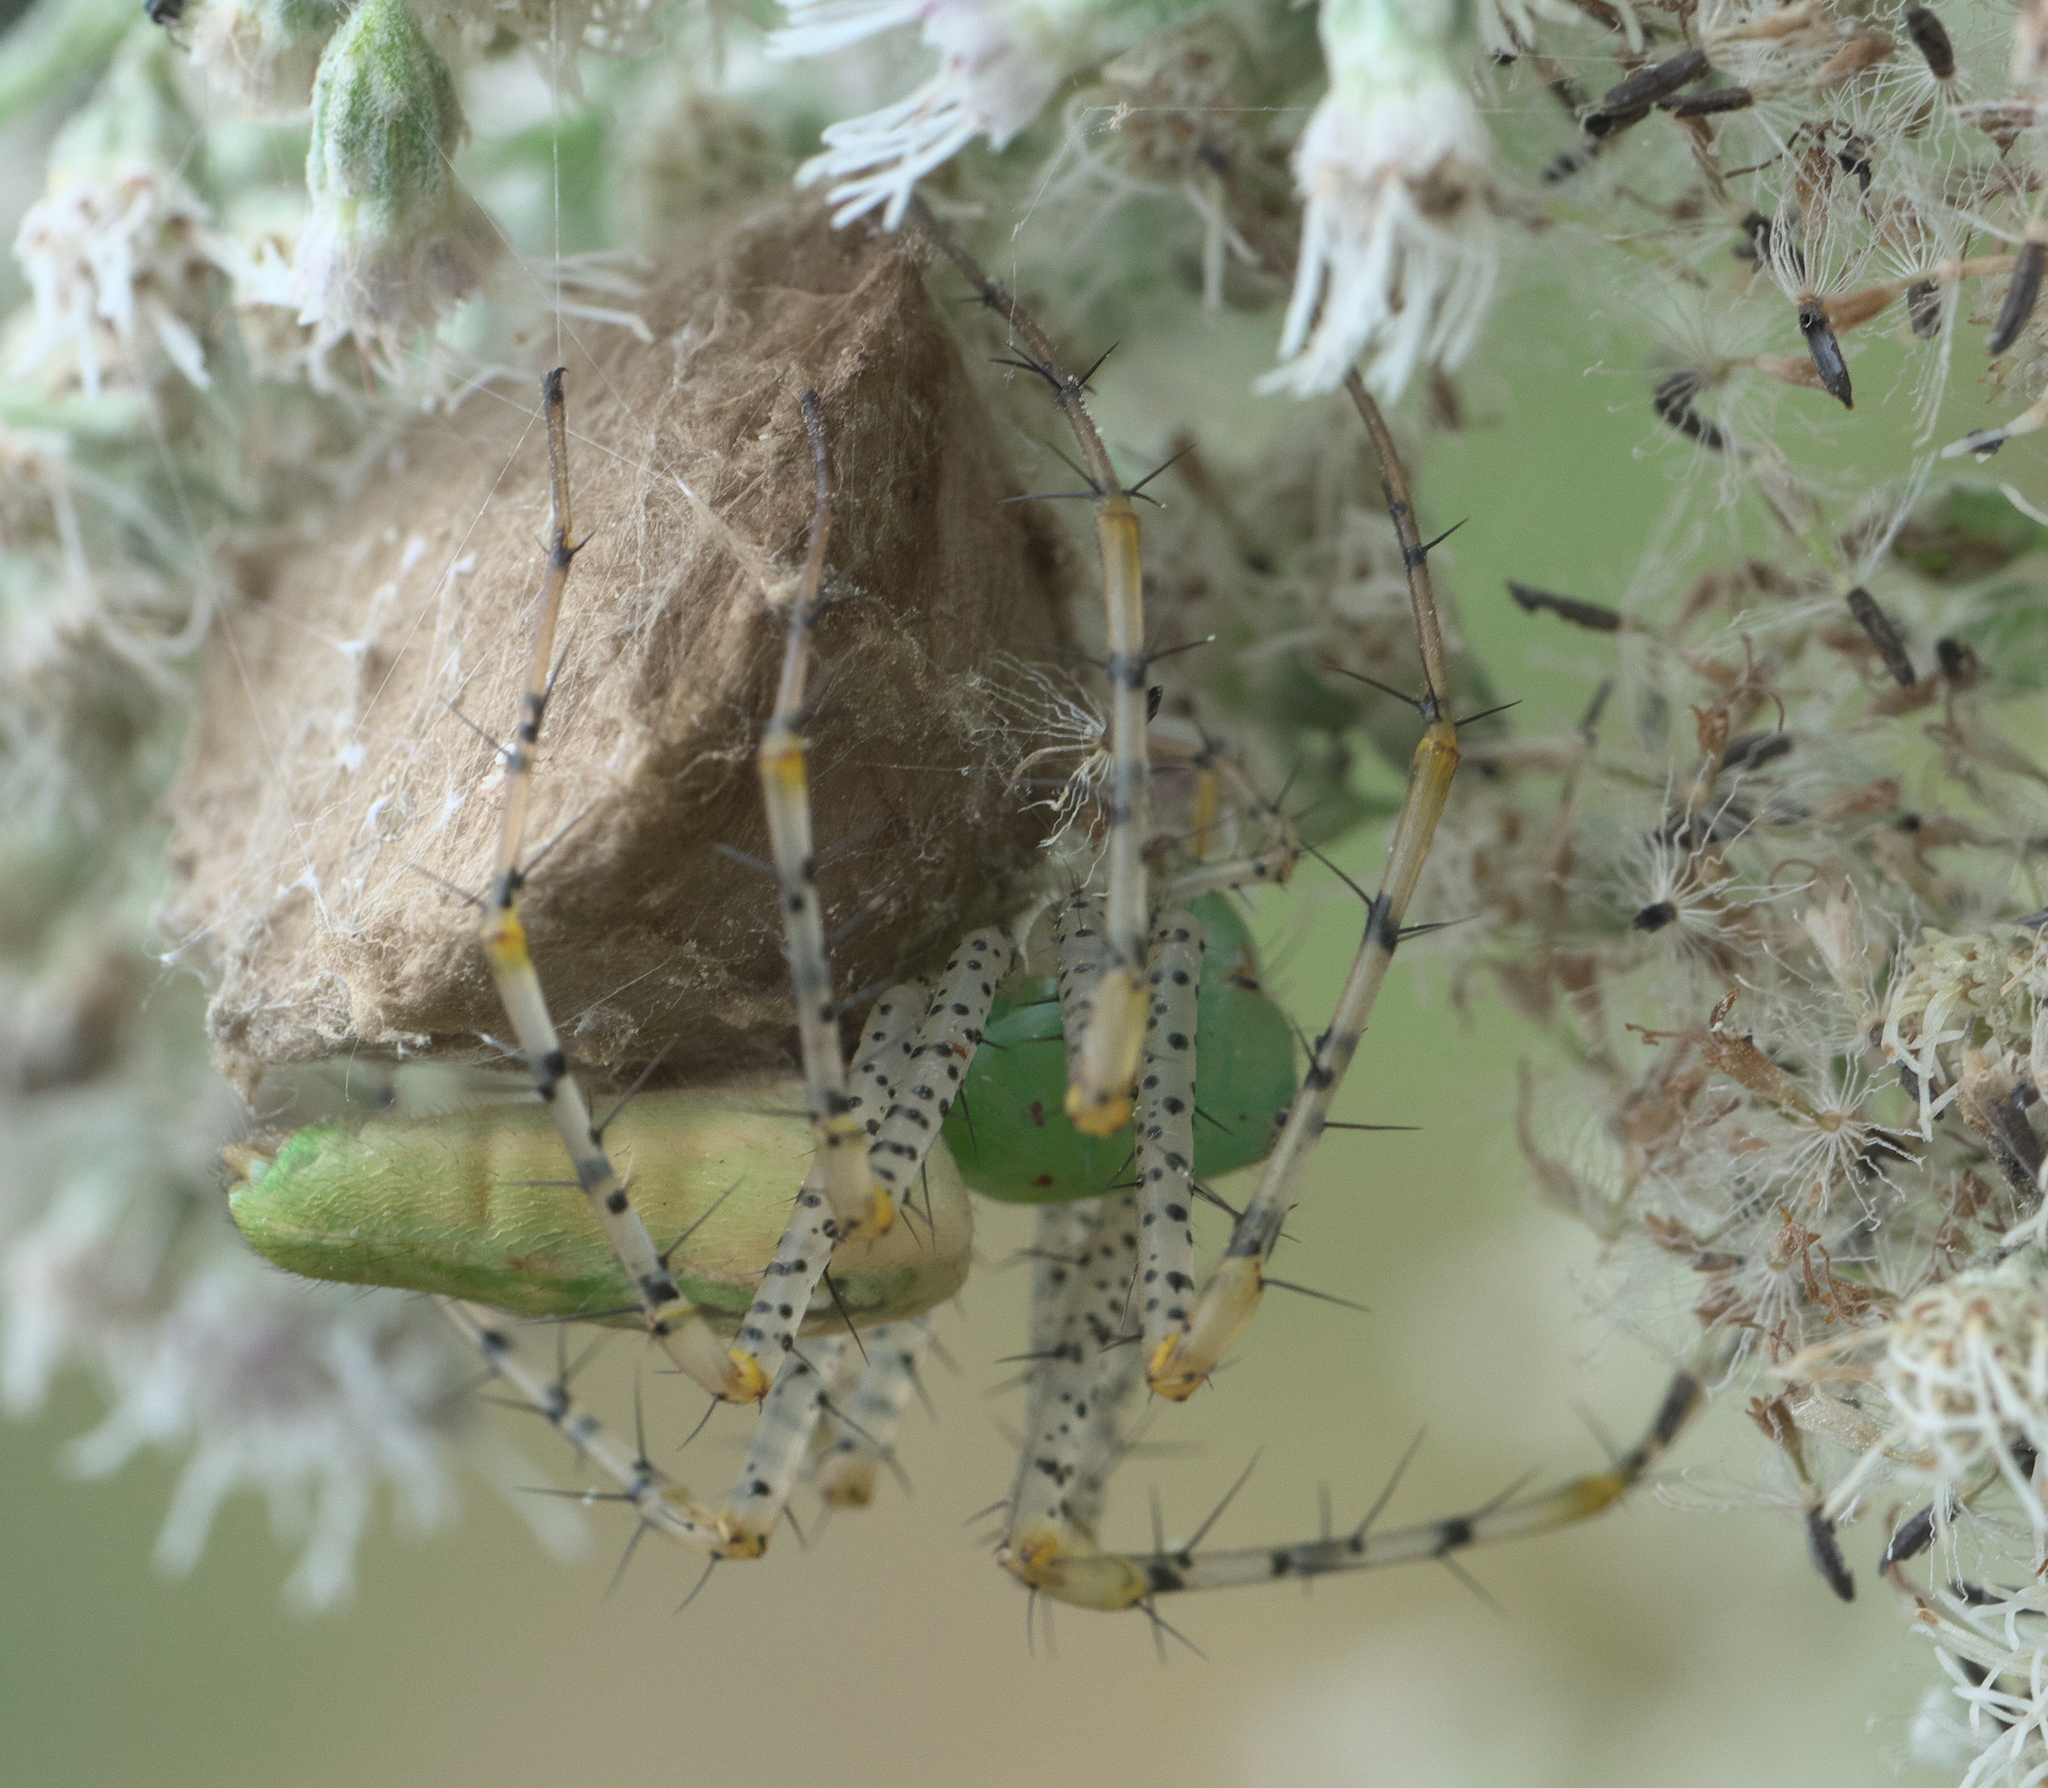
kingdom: Animalia
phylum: Arthropoda
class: Arachnida
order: Araneae
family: Oxyopidae
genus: Peucetia
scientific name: Peucetia viridans
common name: Lynx spiders
